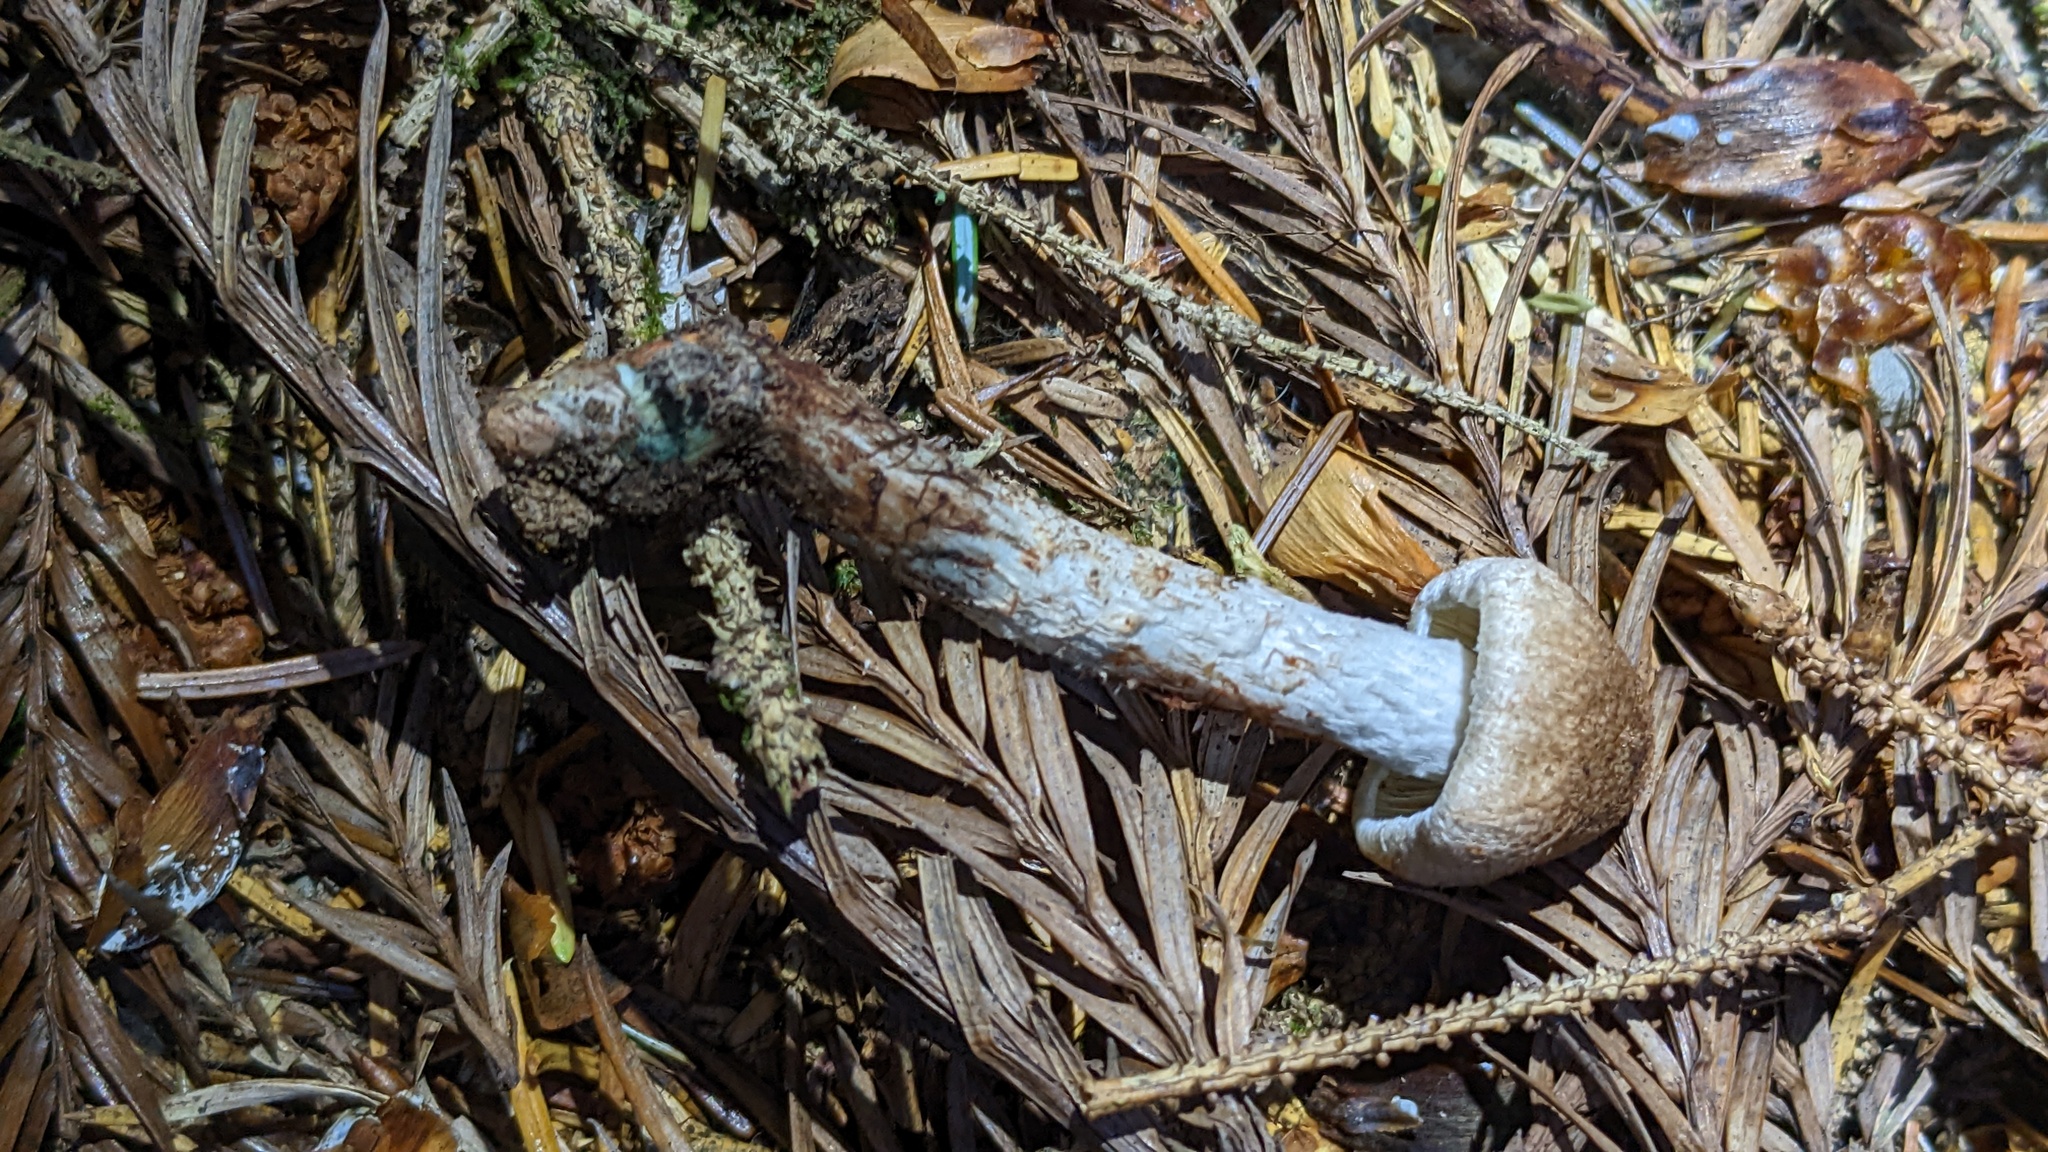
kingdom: Fungi
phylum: Basidiomycota
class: Agaricomycetes
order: Agaricales
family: Inocybaceae
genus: Inosperma
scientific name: Inosperma calamistratum
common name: Greenfoot fibrecap
